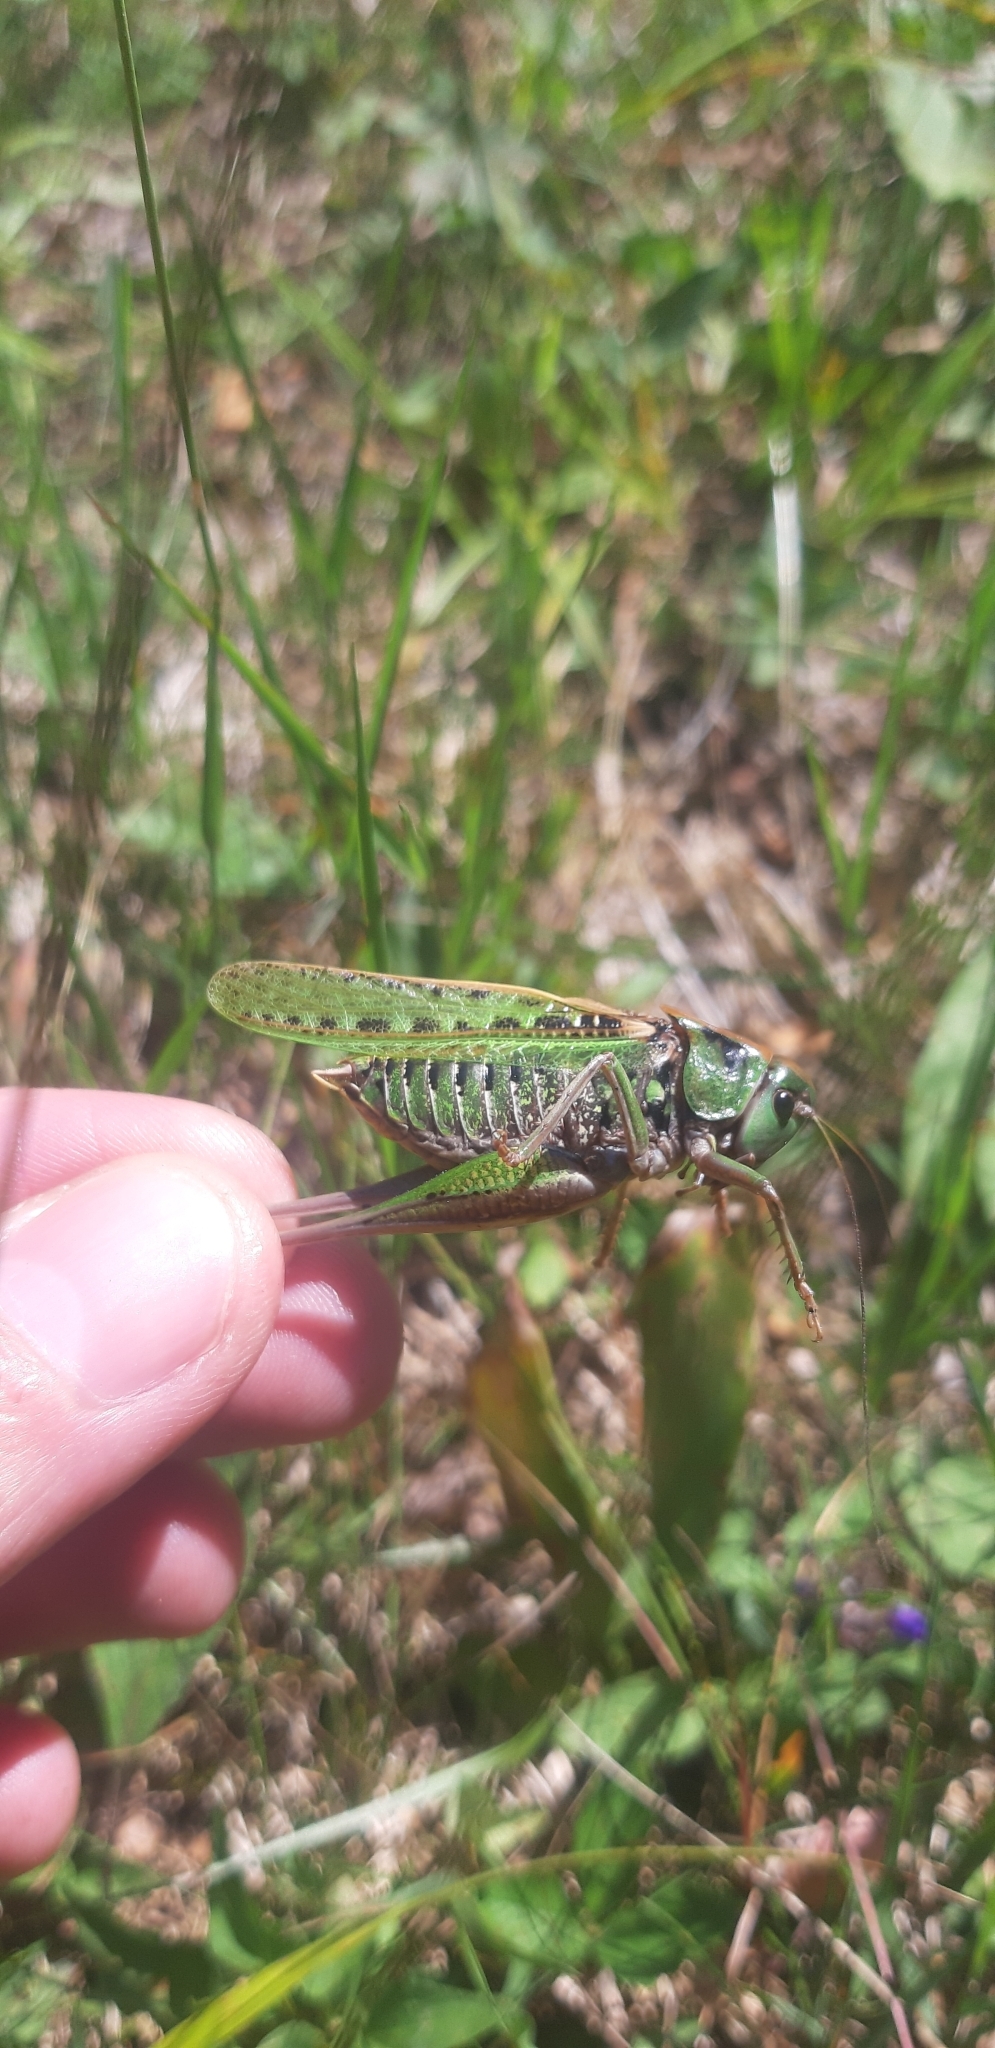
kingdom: Animalia
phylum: Arthropoda
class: Insecta
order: Orthoptera
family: Tettigoniidae
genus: Decticus
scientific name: Decticus verrucivorus
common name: Wart-biter
